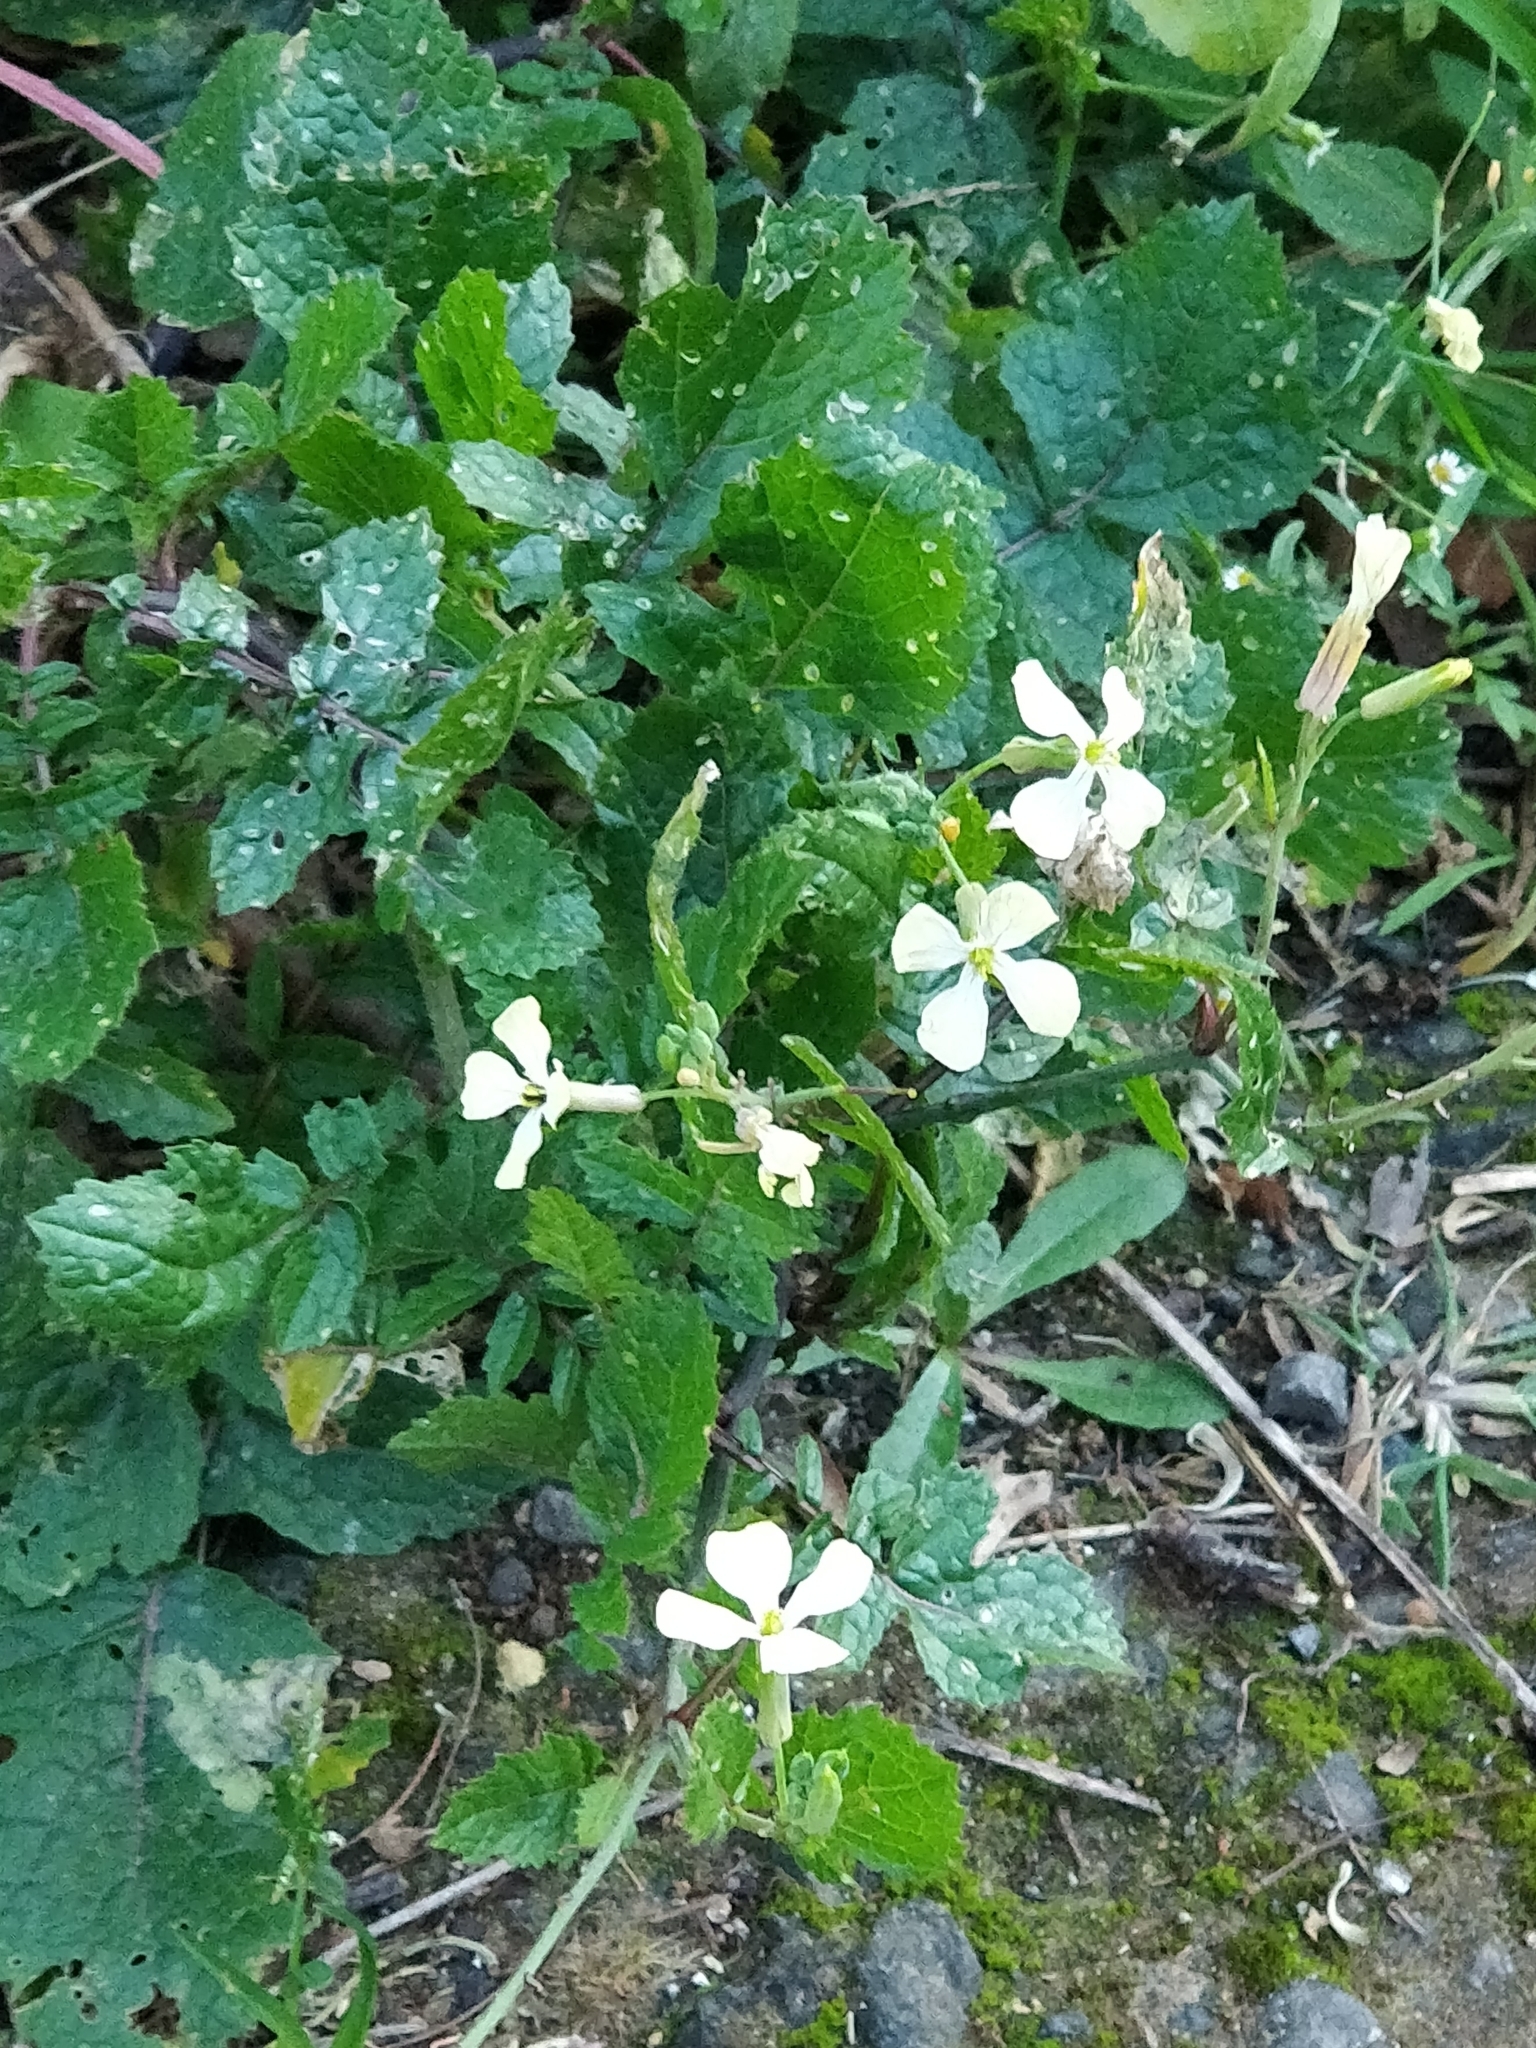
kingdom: Plantae
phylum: Tracheophyta
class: Magnoliopsida
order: Brassicales
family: Brassicaceae
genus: Raphanus
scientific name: Raphanus raphanistrum
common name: Wild radish
